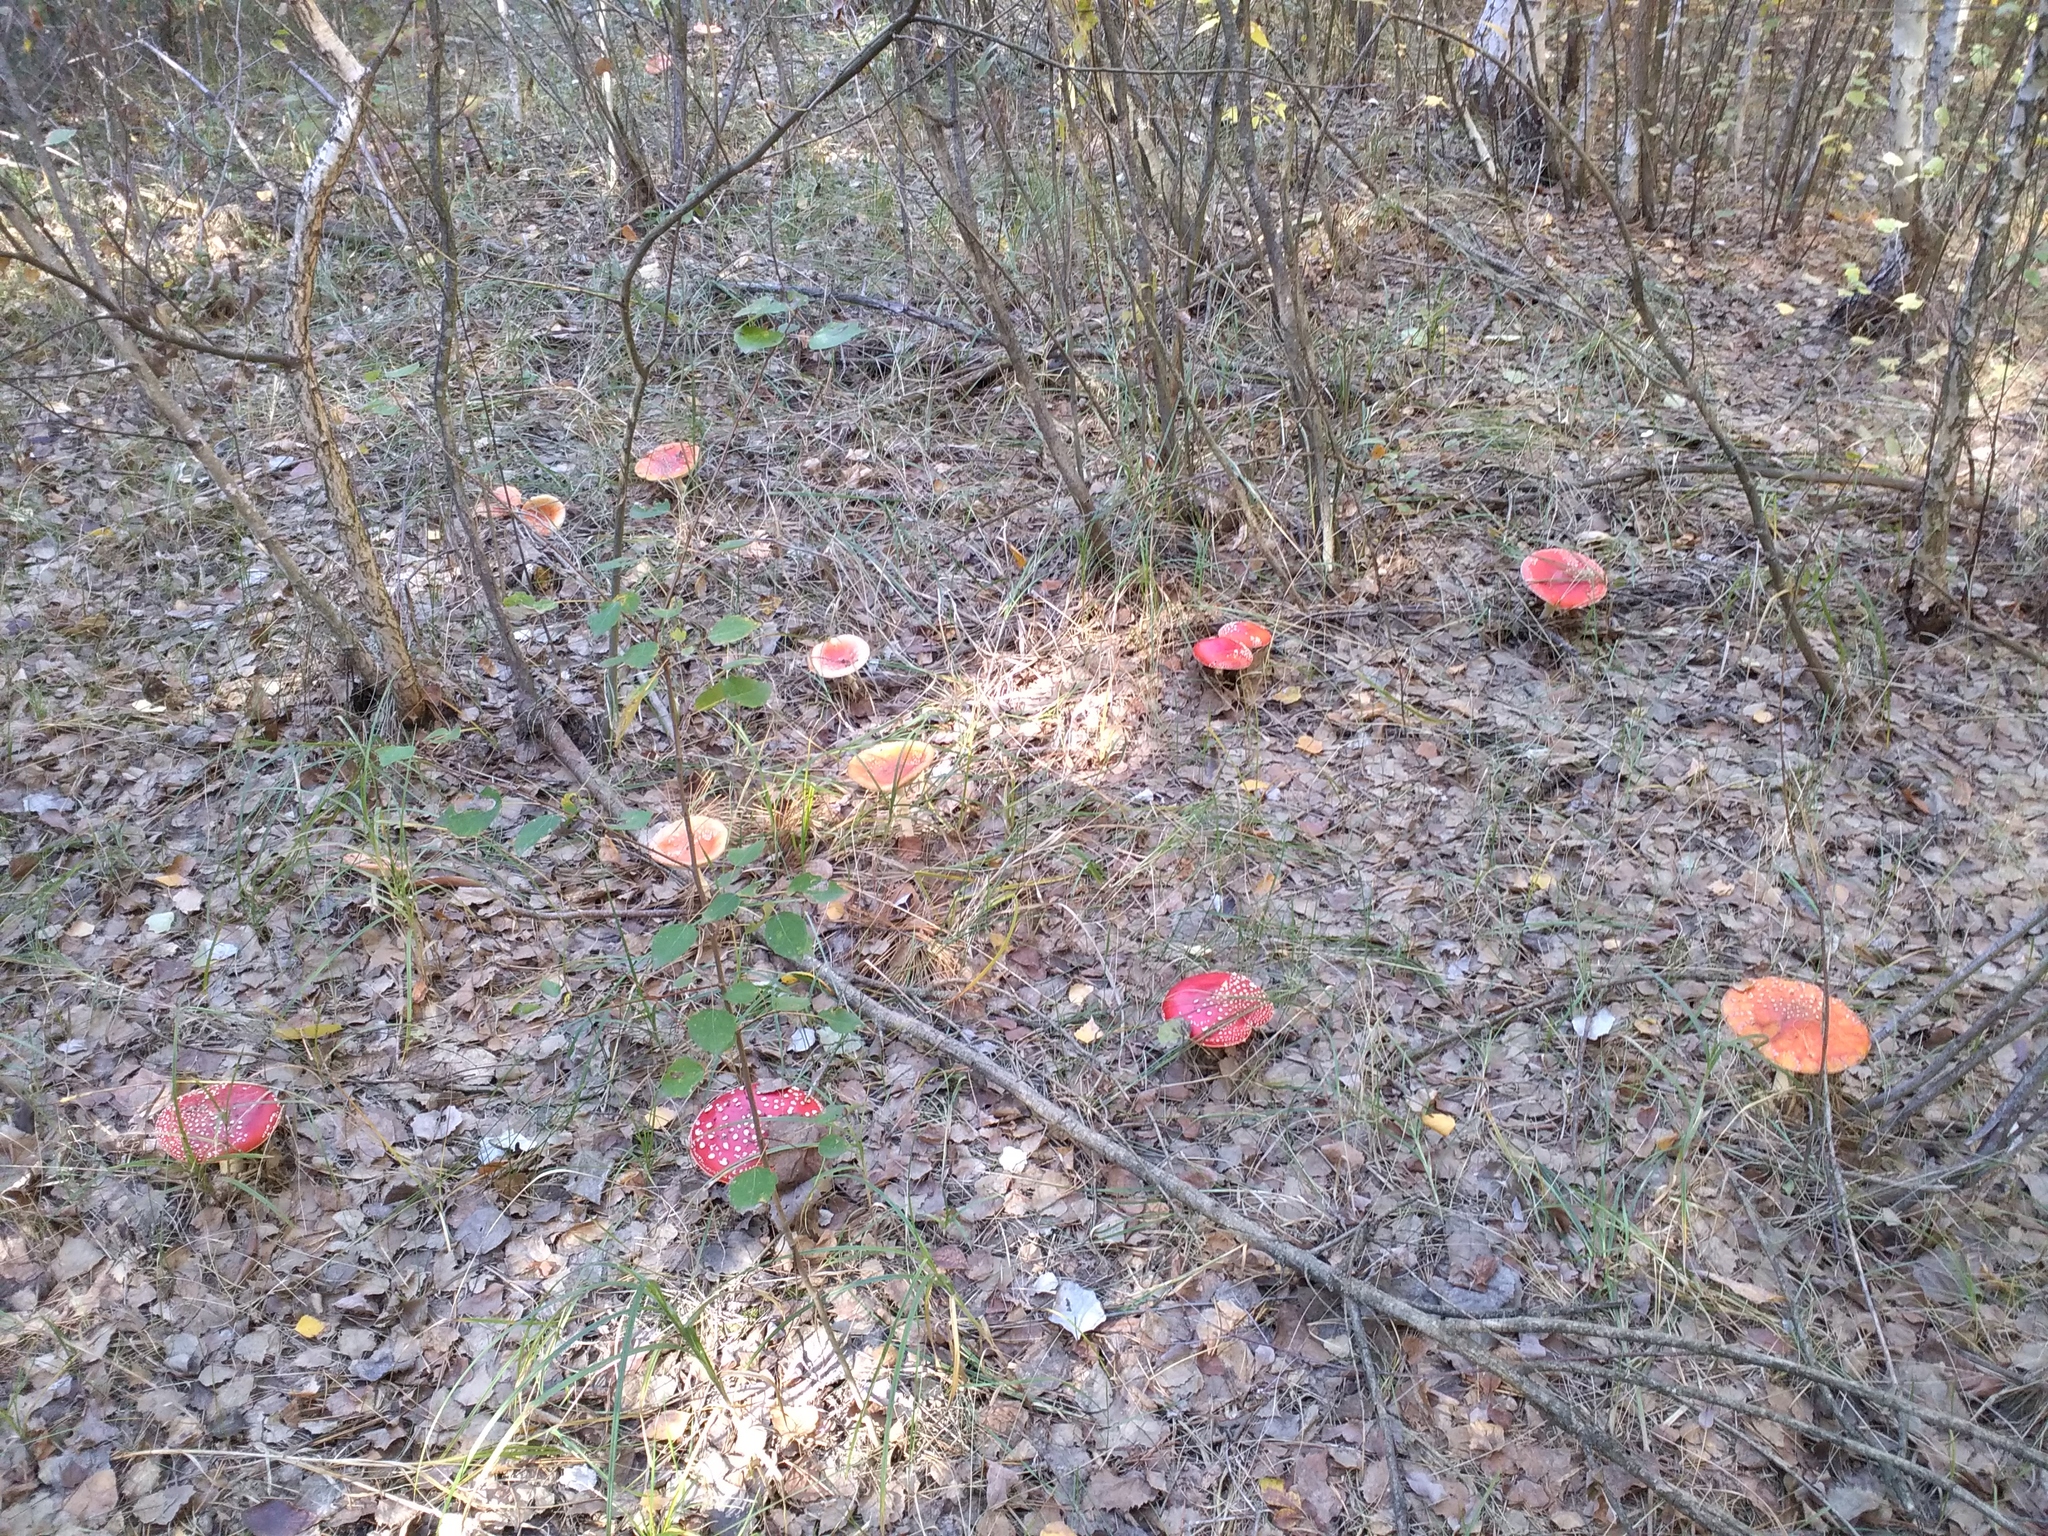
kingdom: Fungi
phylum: Basidiomycota
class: Agaricomycetes
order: Agaricales
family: Amanitaceae
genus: Amanita
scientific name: Amanita muscaria
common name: Fly agaric
